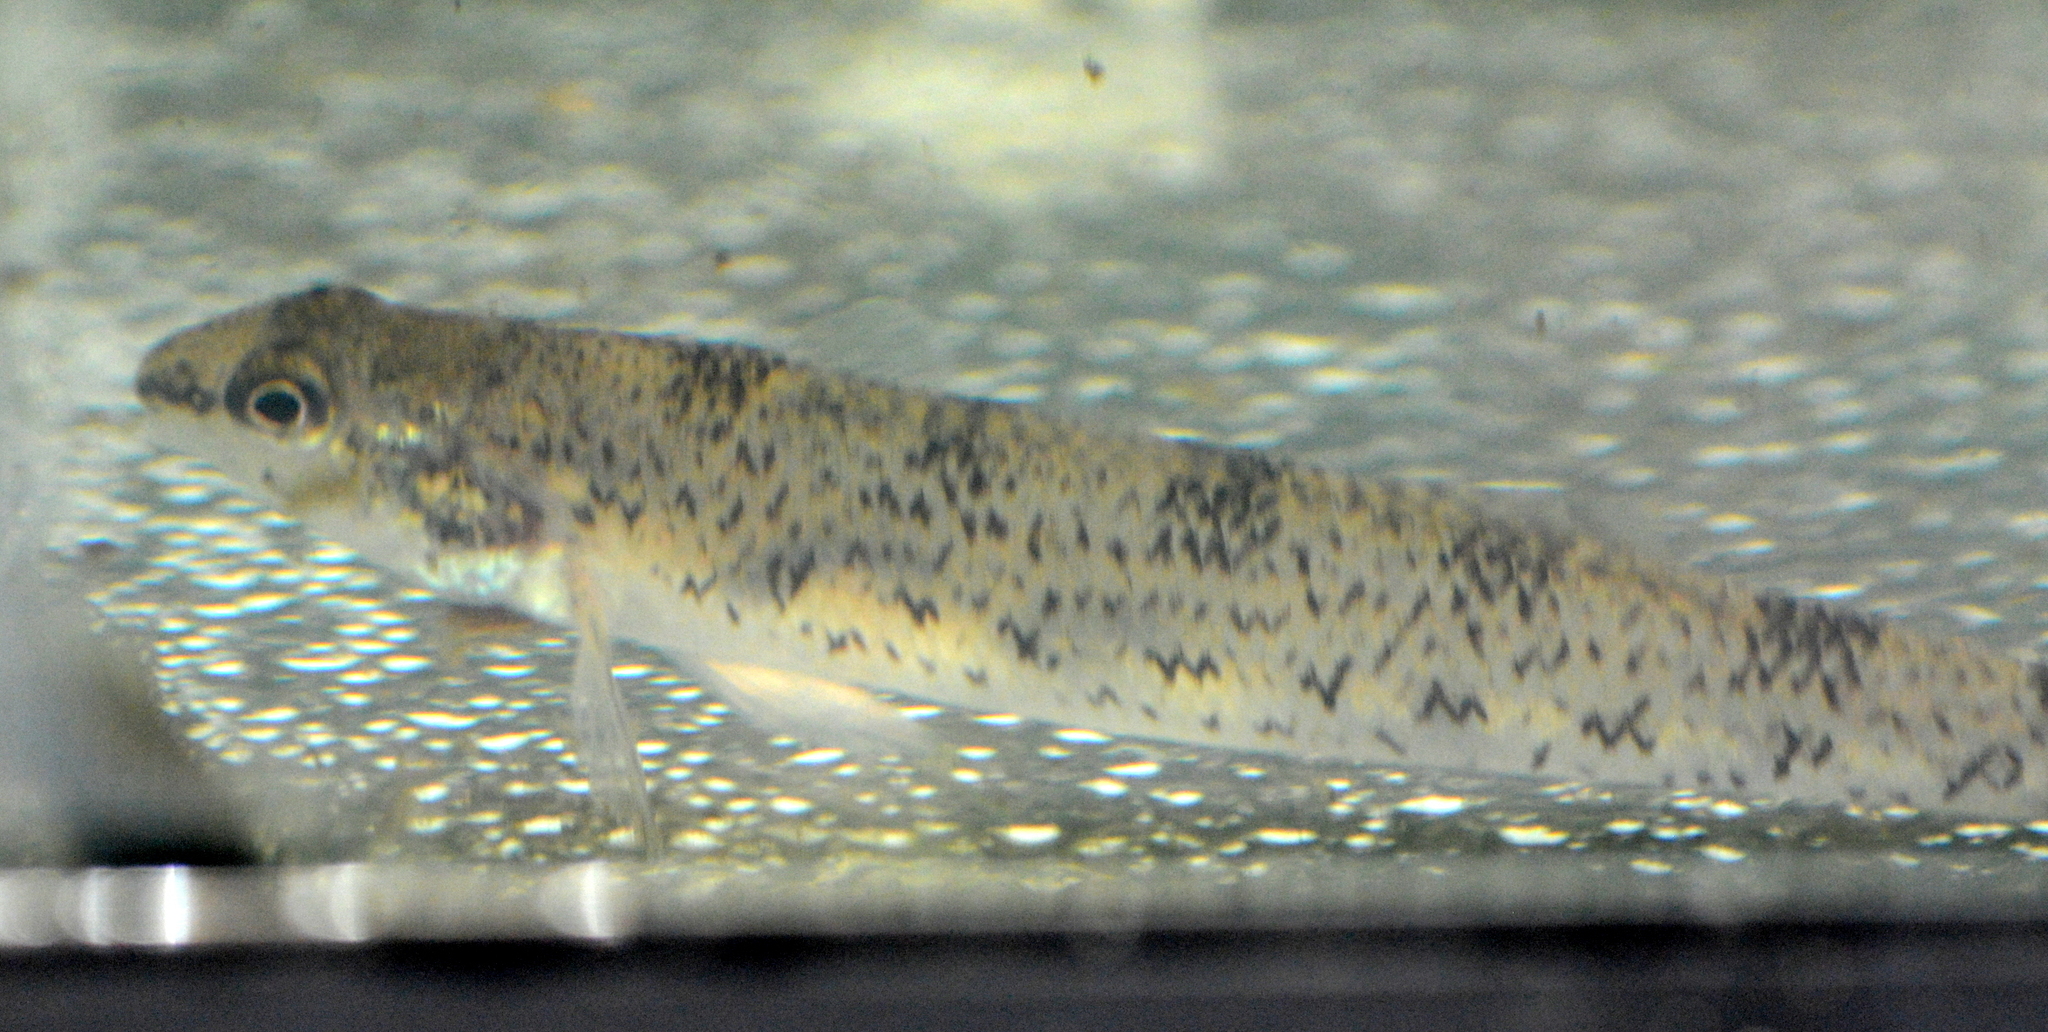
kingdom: Animalia
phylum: Chordata
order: Perciformes
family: Percidae
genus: Etheostoma
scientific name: Etheostoma nigrum
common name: Johnny darter
